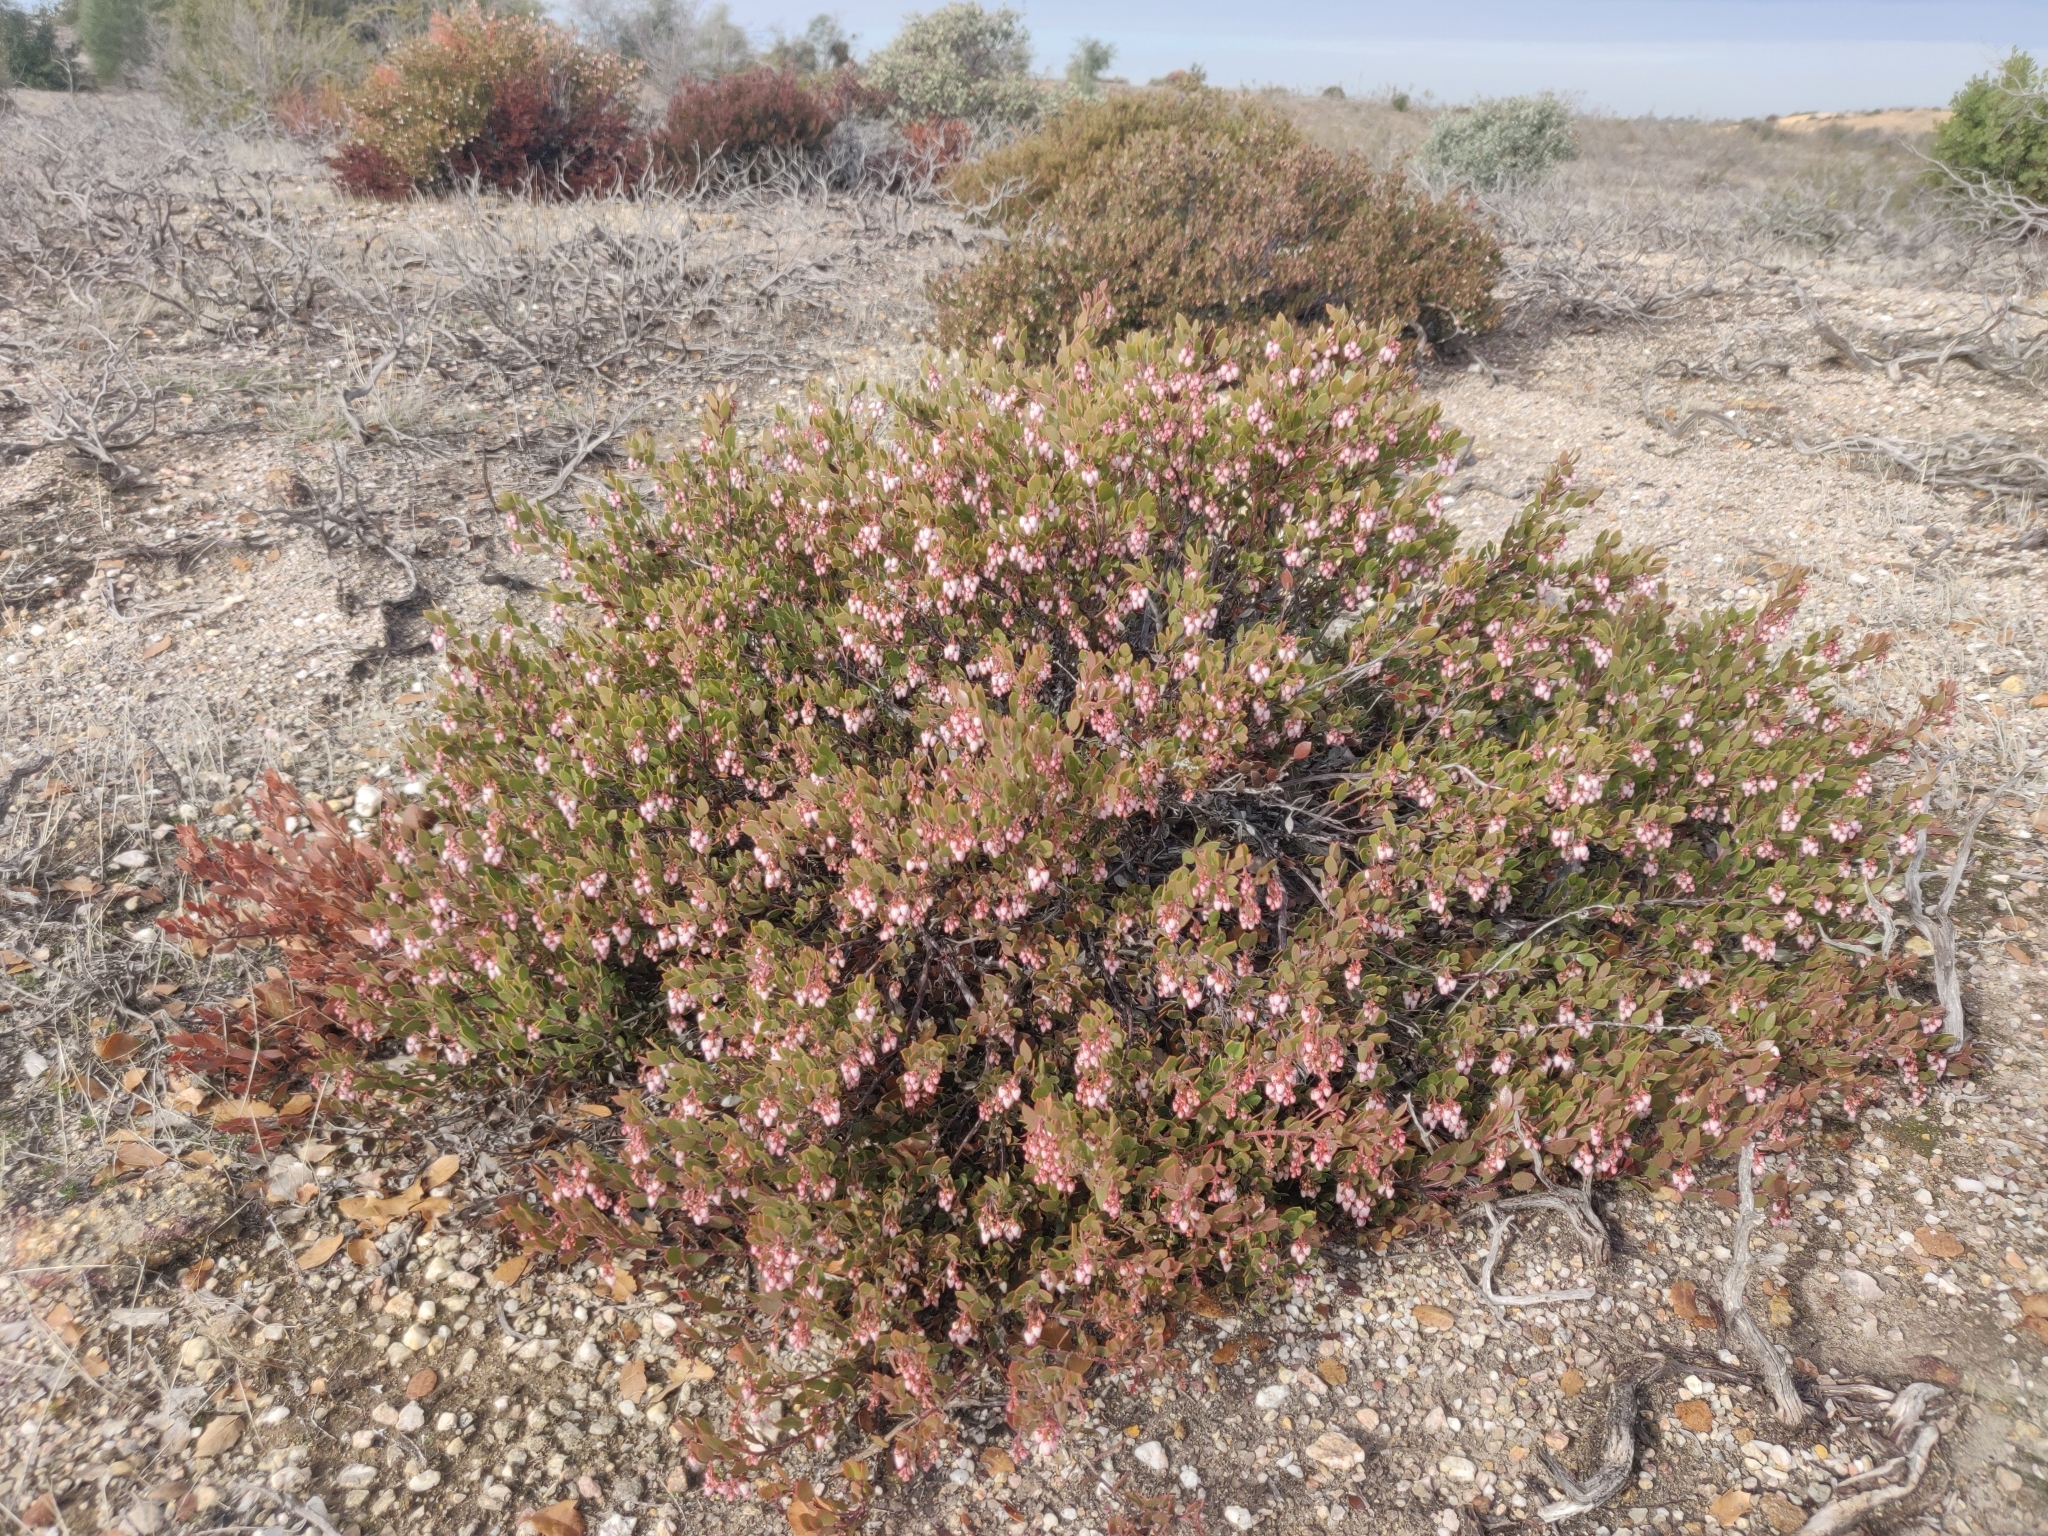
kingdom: Plantae
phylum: Tracheophyta
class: Magnoliopsida
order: Ericales
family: Ericaceae
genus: Arctostaphylos
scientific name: Arctostaphylos myrtifolia
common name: Ione manzanita
